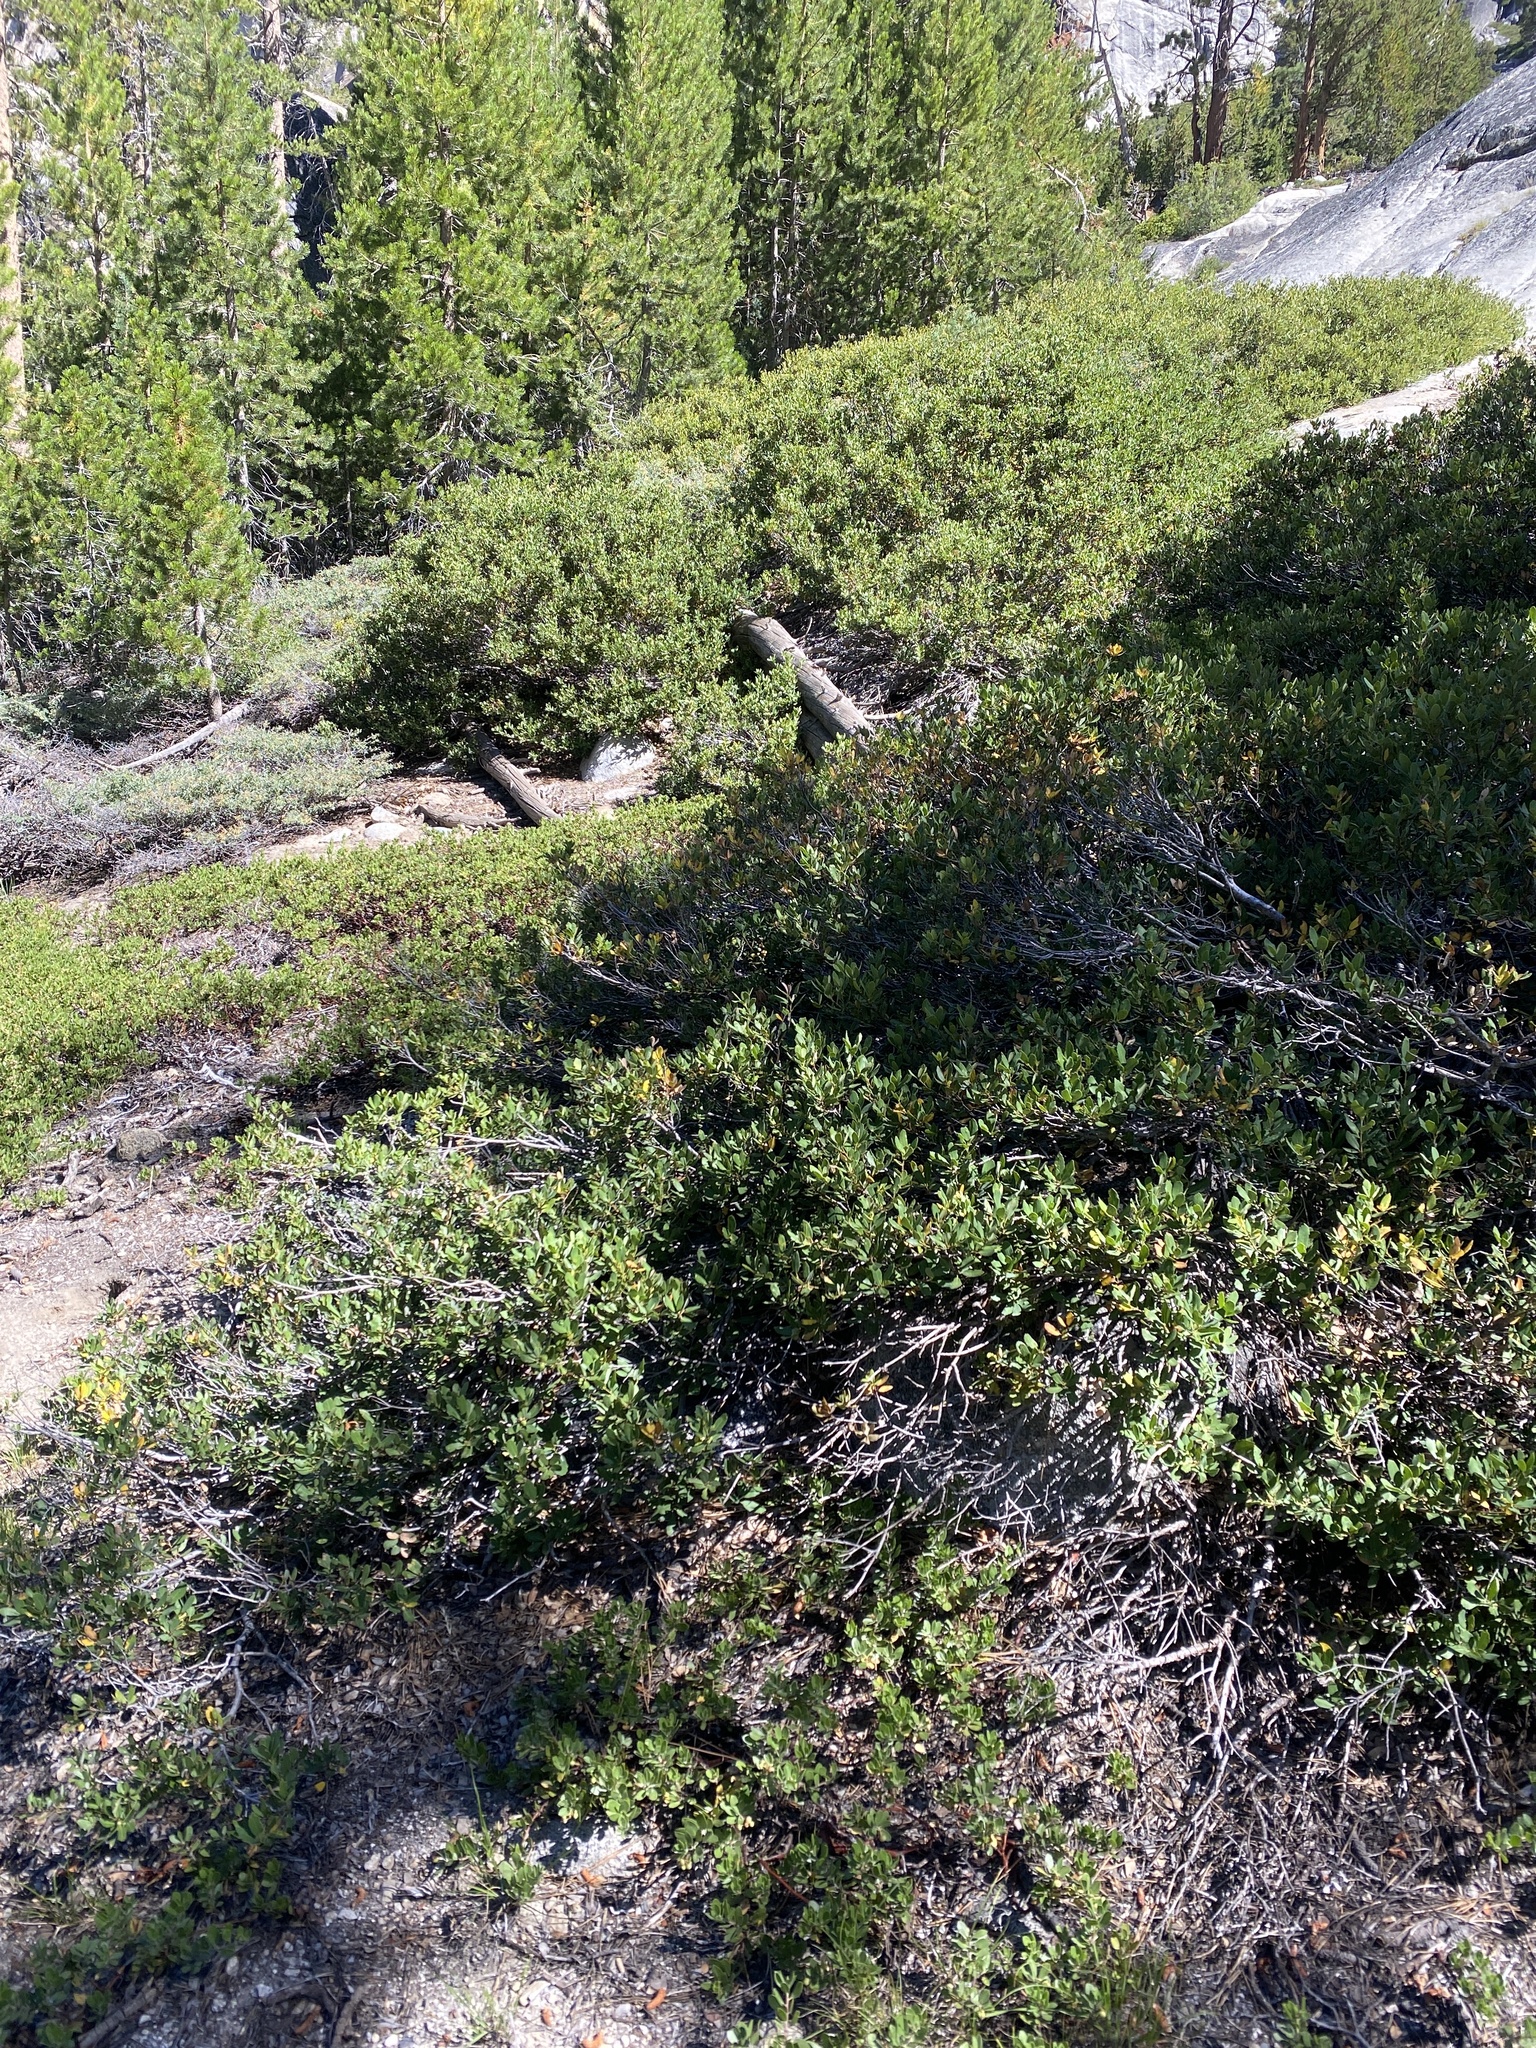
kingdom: Plantae
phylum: Tracheophyta
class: Magnoliopsida
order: Fagales
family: Fagaceae
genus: Quercus
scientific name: Quercus vacciniifolia
